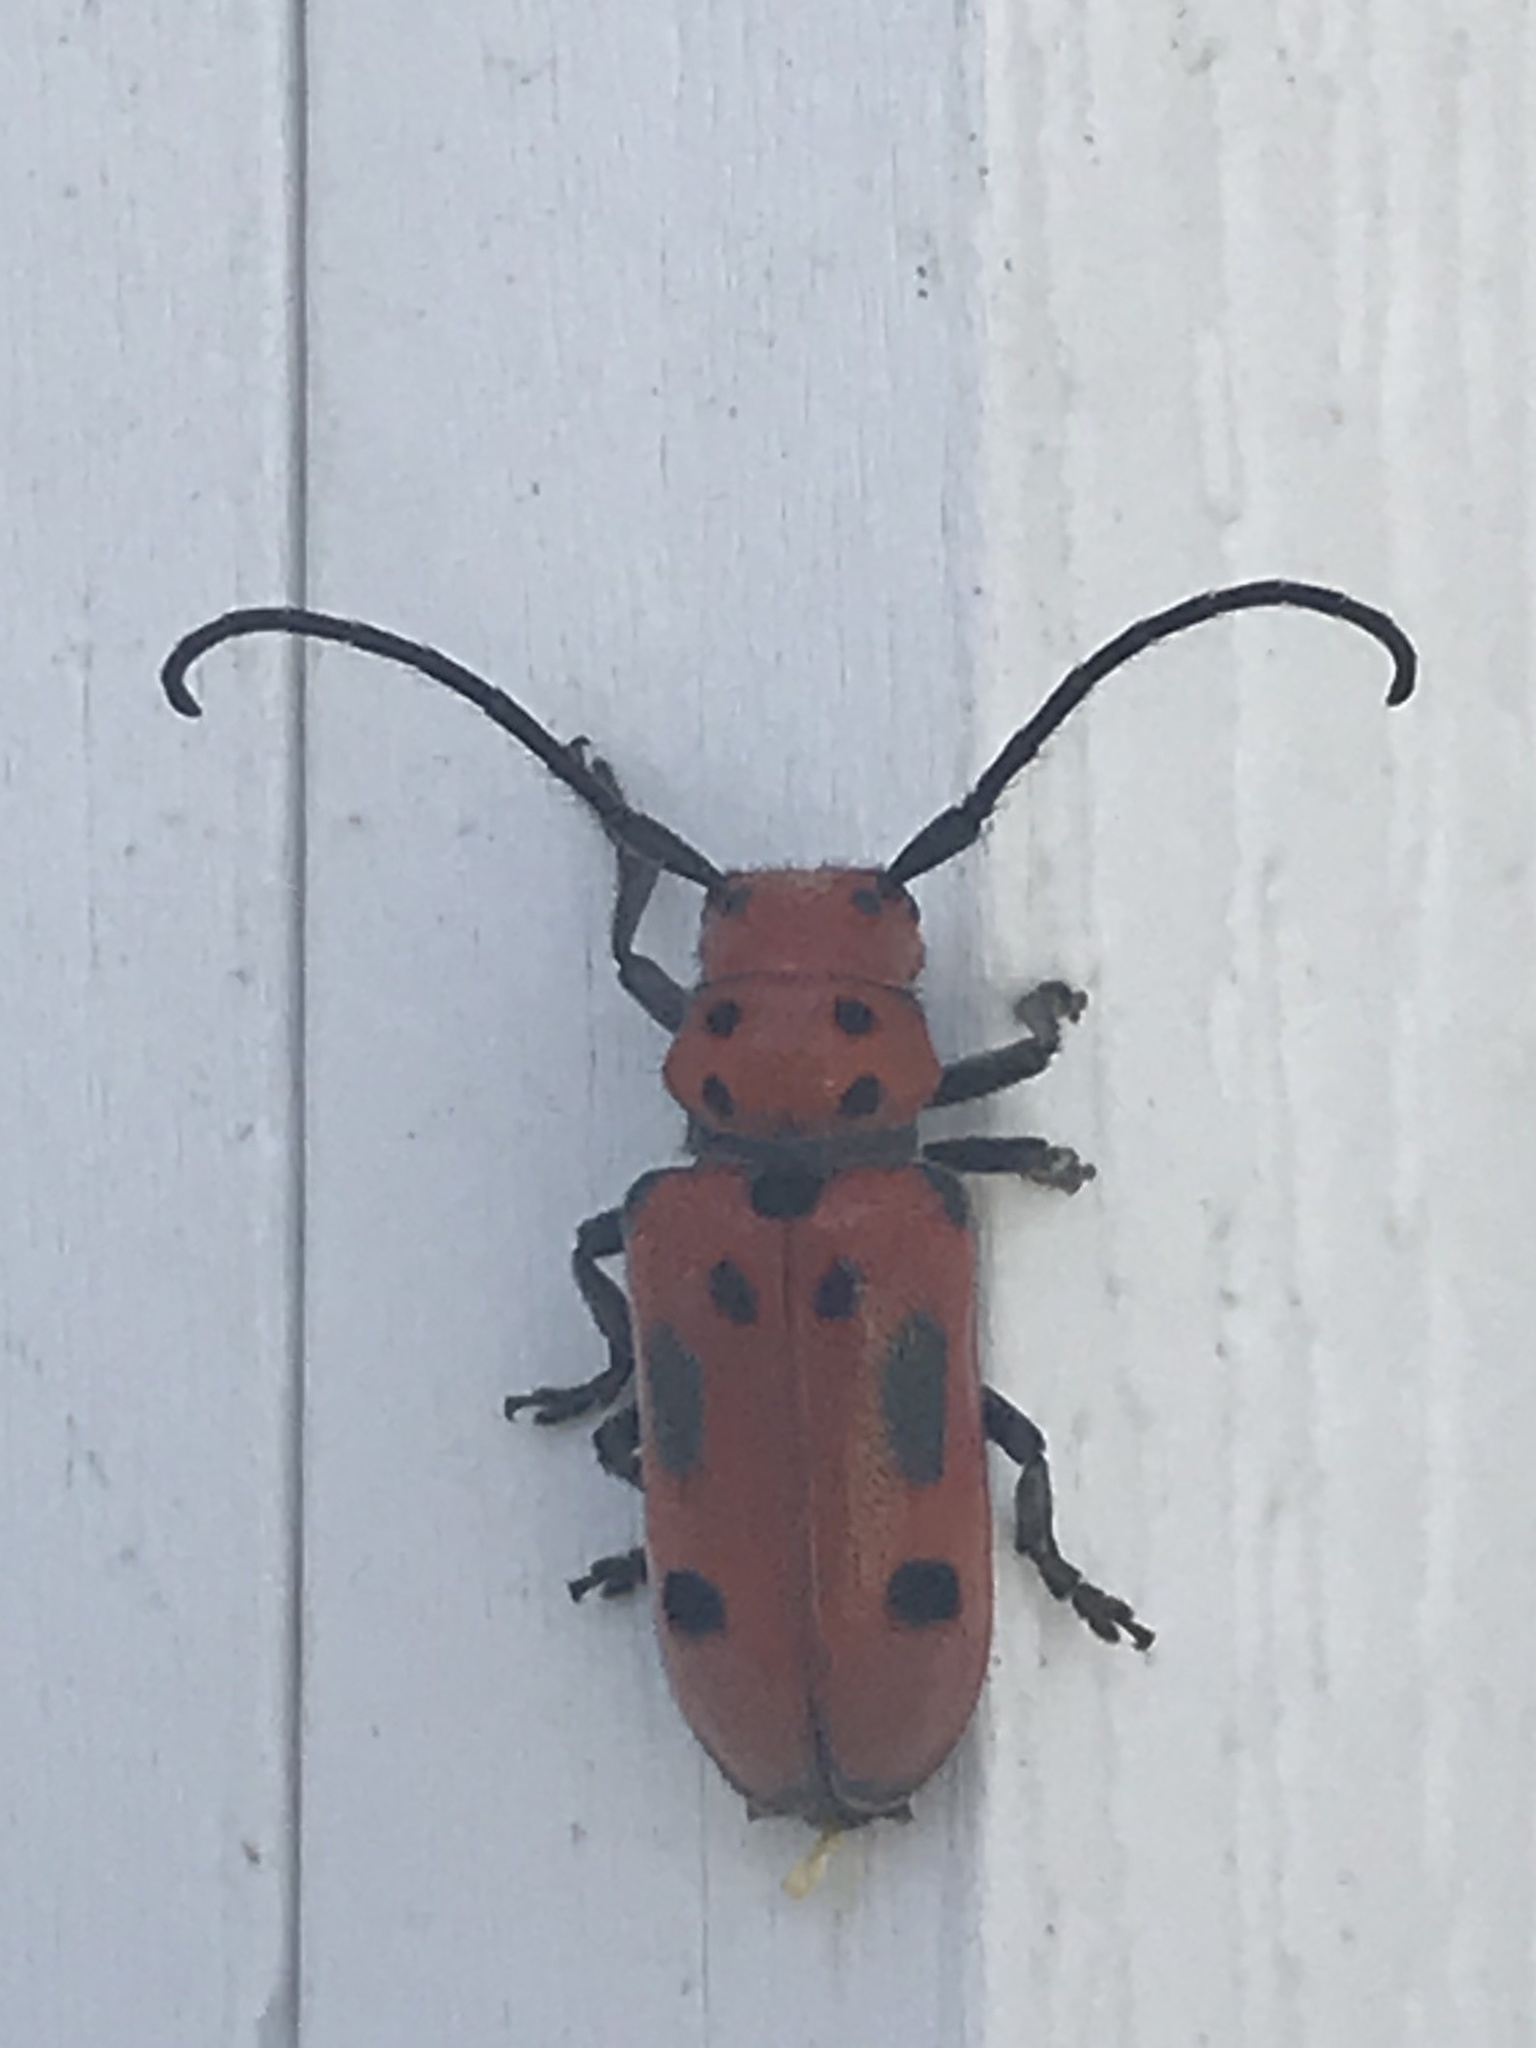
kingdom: Animalia
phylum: Arthropoda
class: Insecta
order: Coleoptera
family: Cerambycidae
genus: Tetraopes
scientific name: Tetraopes tetrophthalmus
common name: Red milkweed beetle
